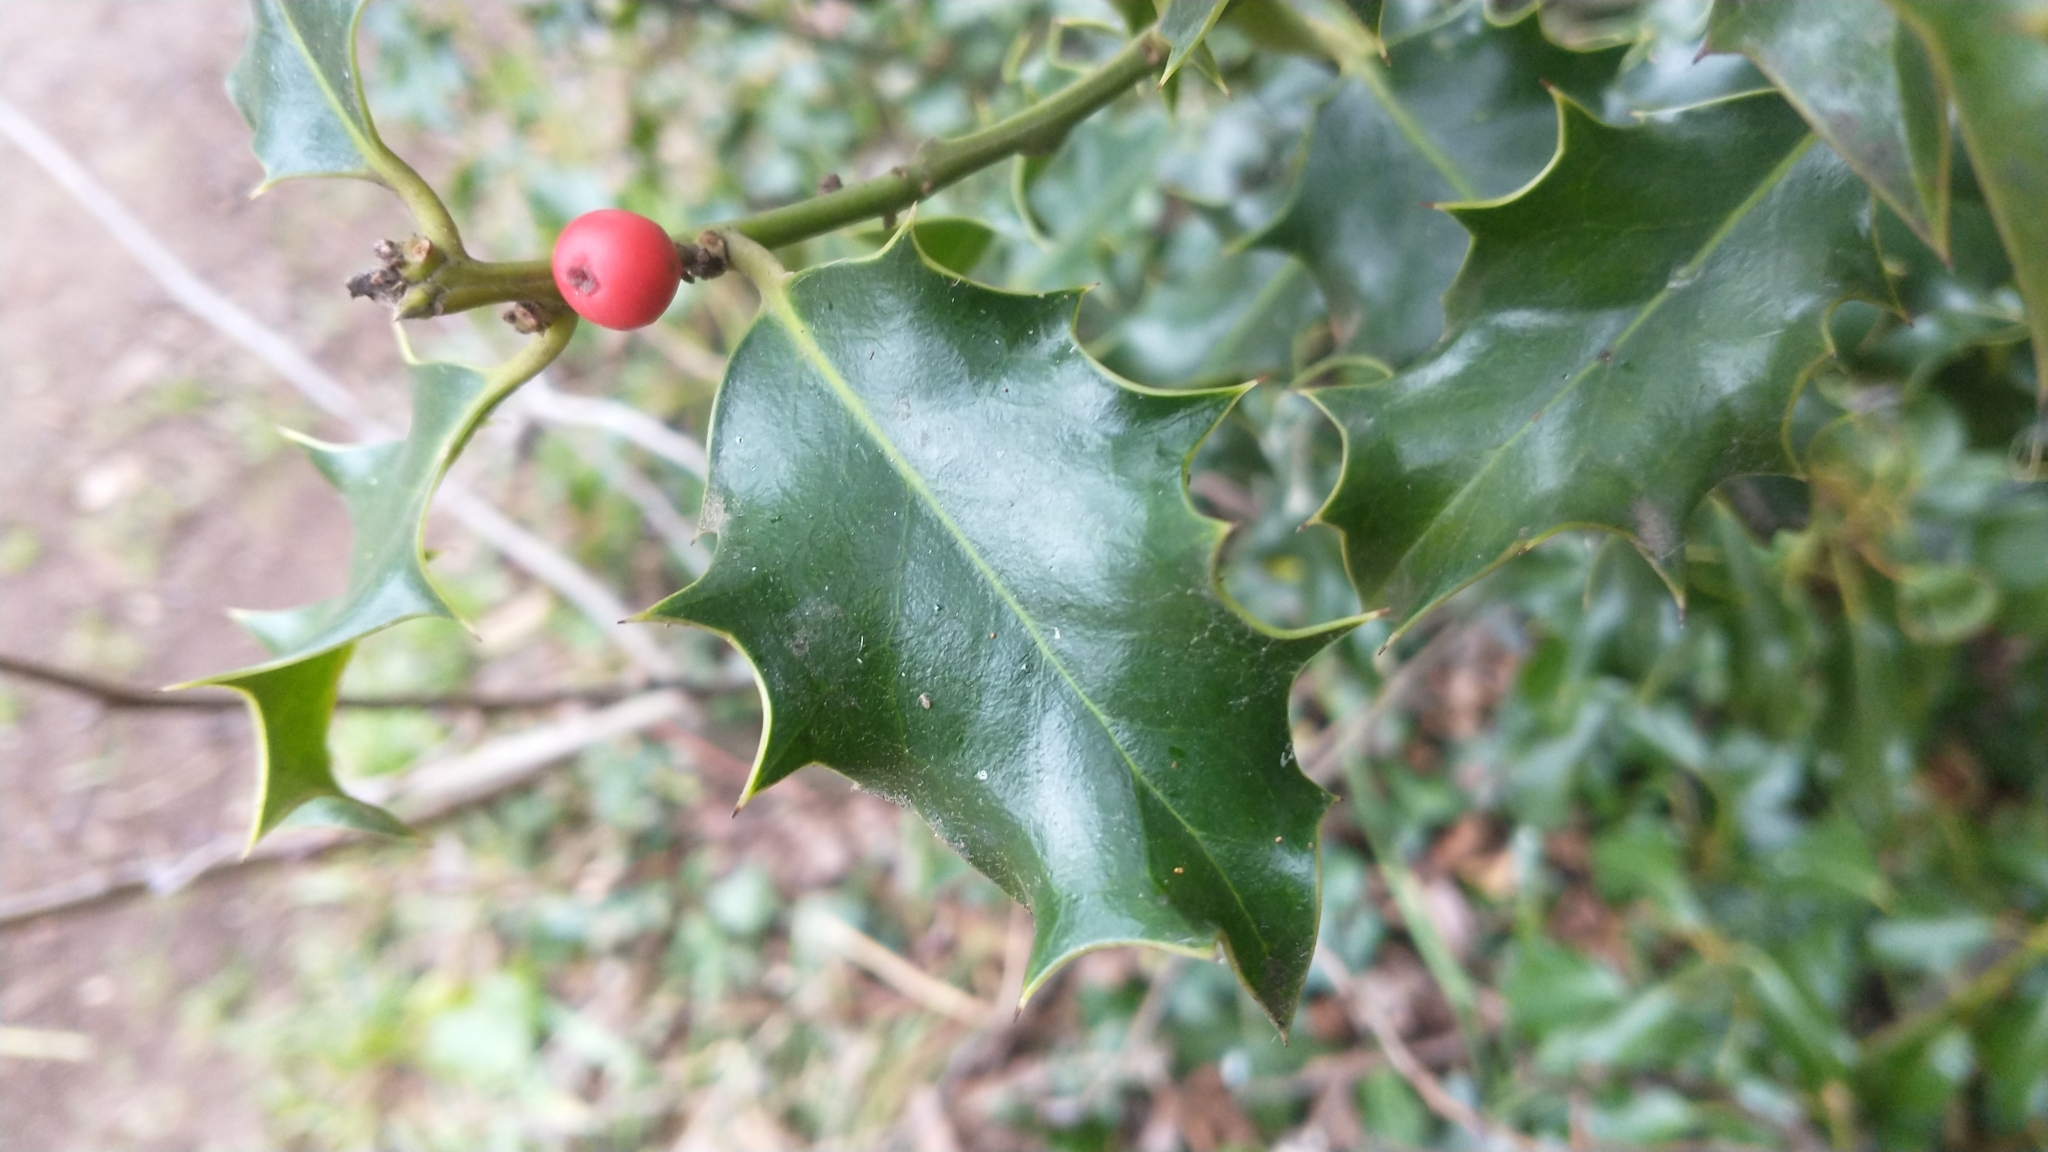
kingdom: Plantae
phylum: Tracheophyta
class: Magnoliopsida
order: Aquifoliales
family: Aquifoliaceae
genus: Ilex
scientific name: Ilex aquifolium
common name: English holly
